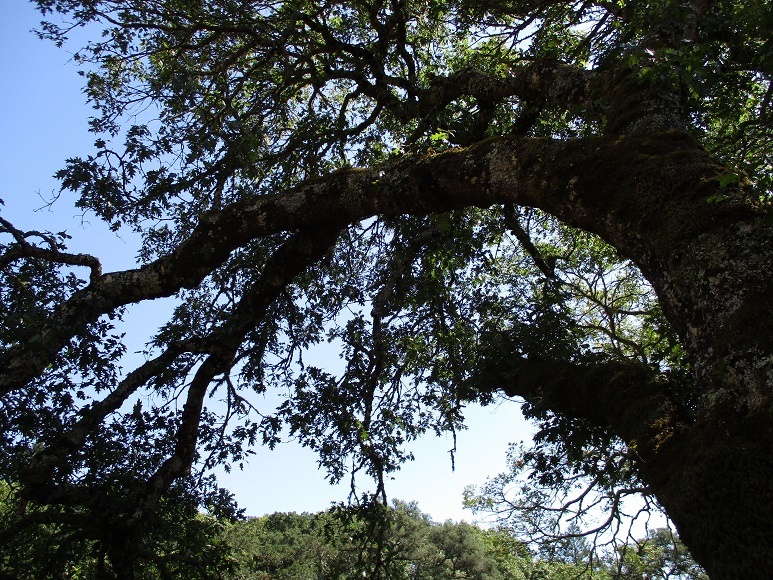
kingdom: Fungi
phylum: Basidiomycota
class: Agaricomycetes
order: Polyporales
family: Polyporaceae
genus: Trametes
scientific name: Trametes versicolor
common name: Turkeytail
